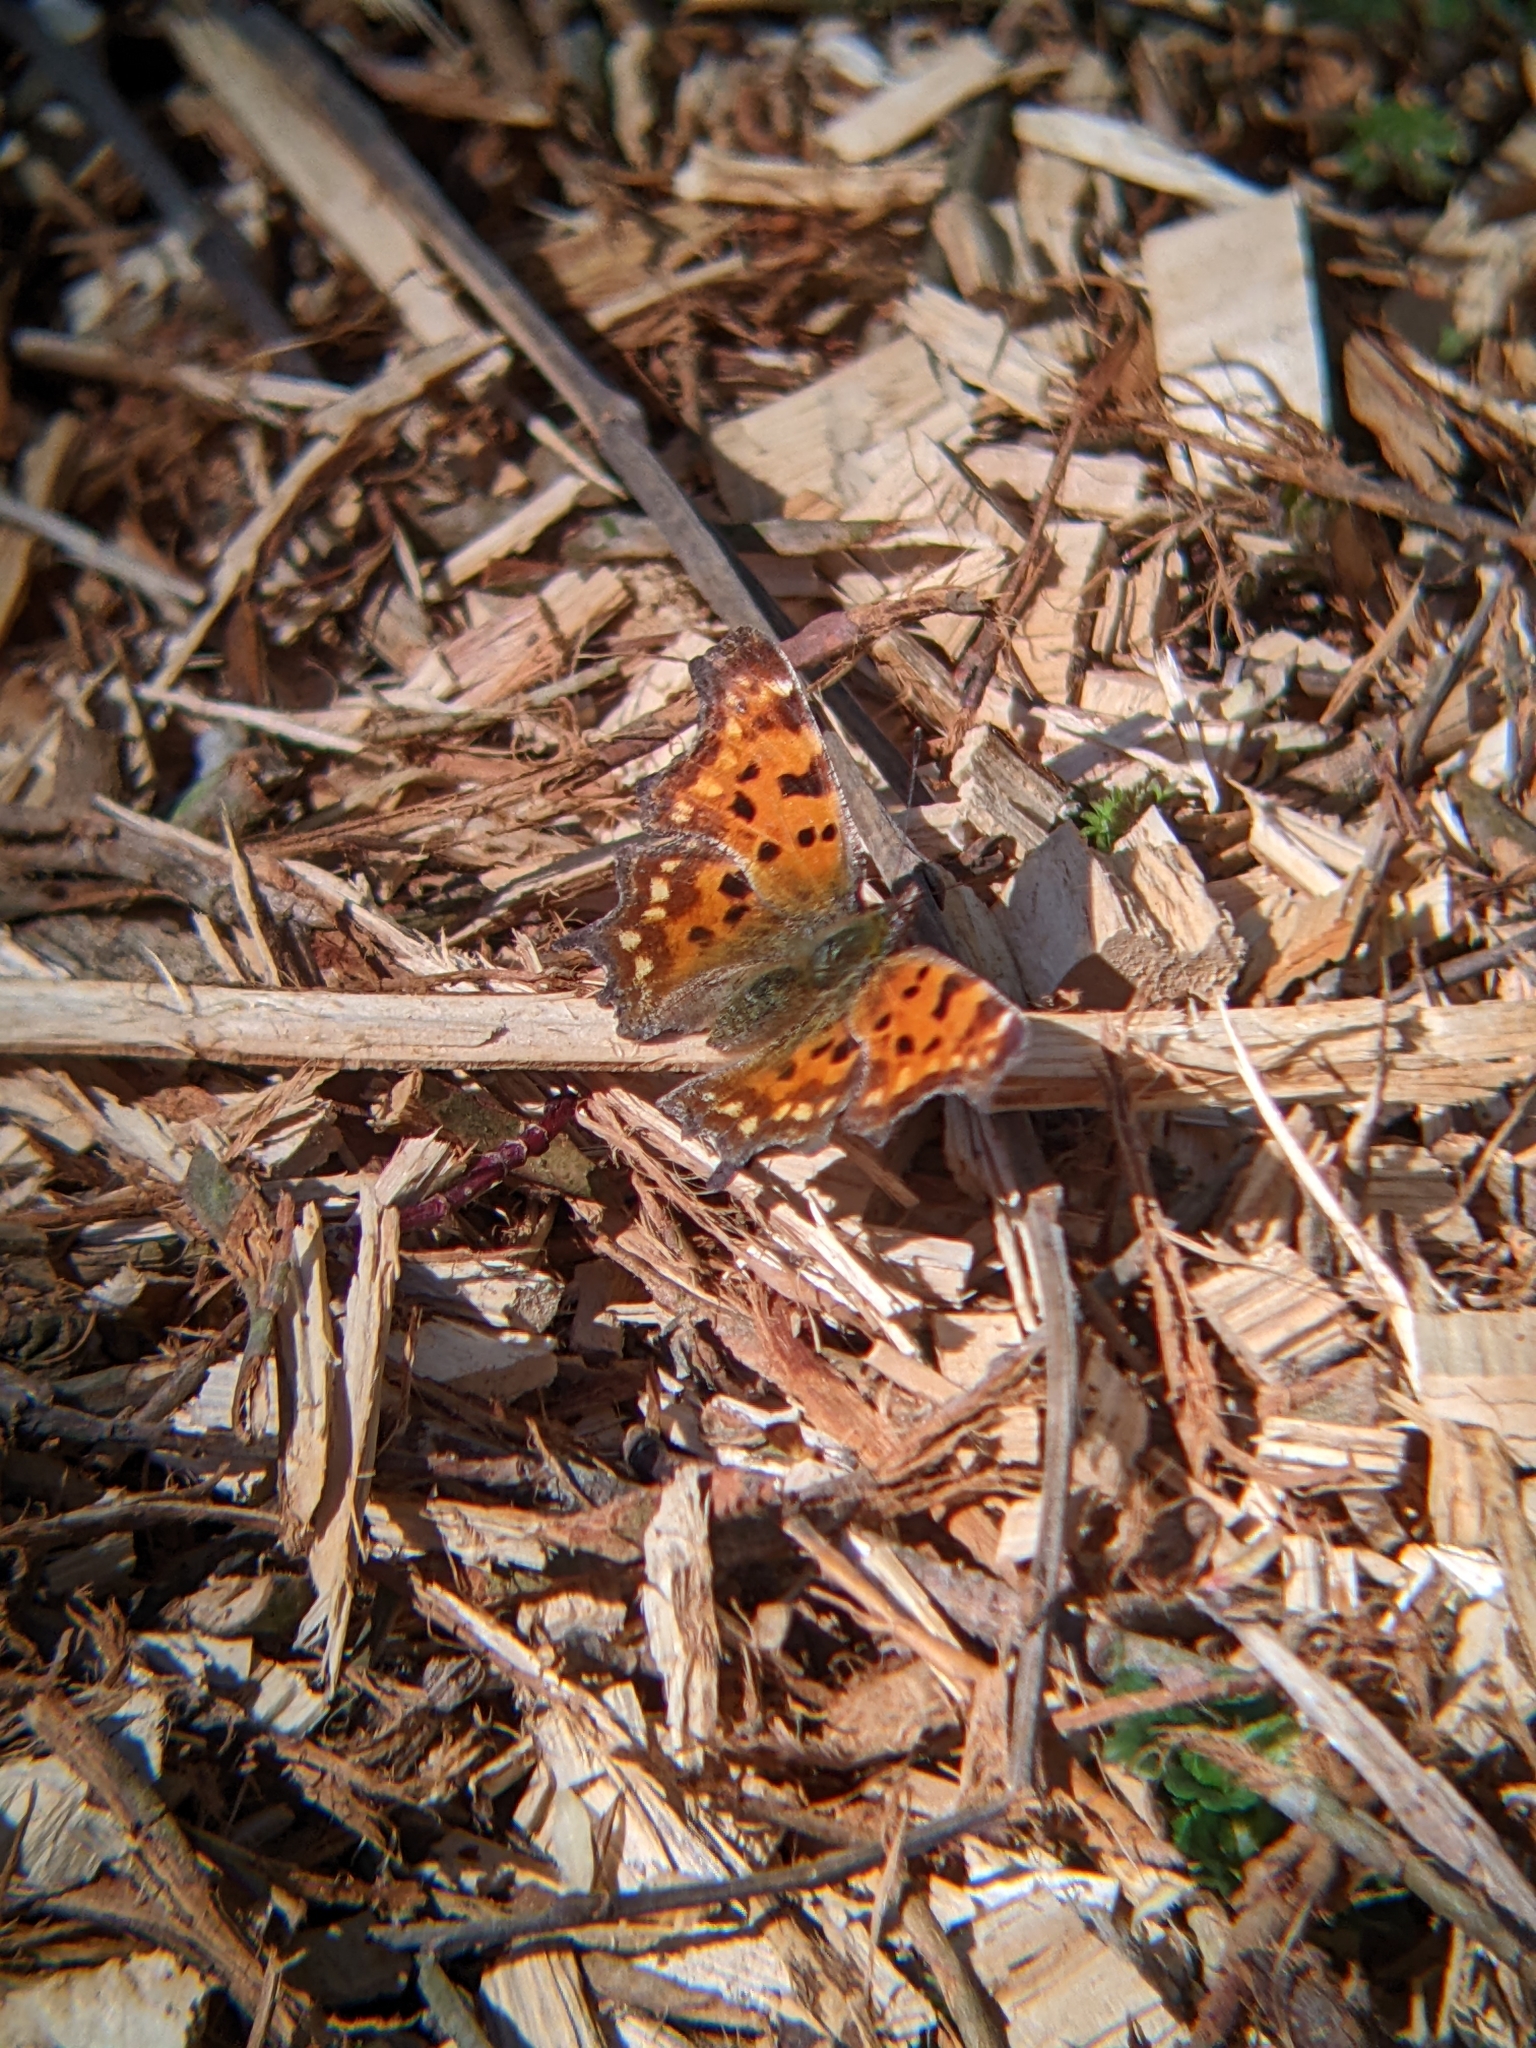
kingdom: Animalia
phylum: Arthropoda
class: Insecta
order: Lepidoptera
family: Nymphalidae
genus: Polygonia
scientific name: Polygonia c-album
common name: Comma
